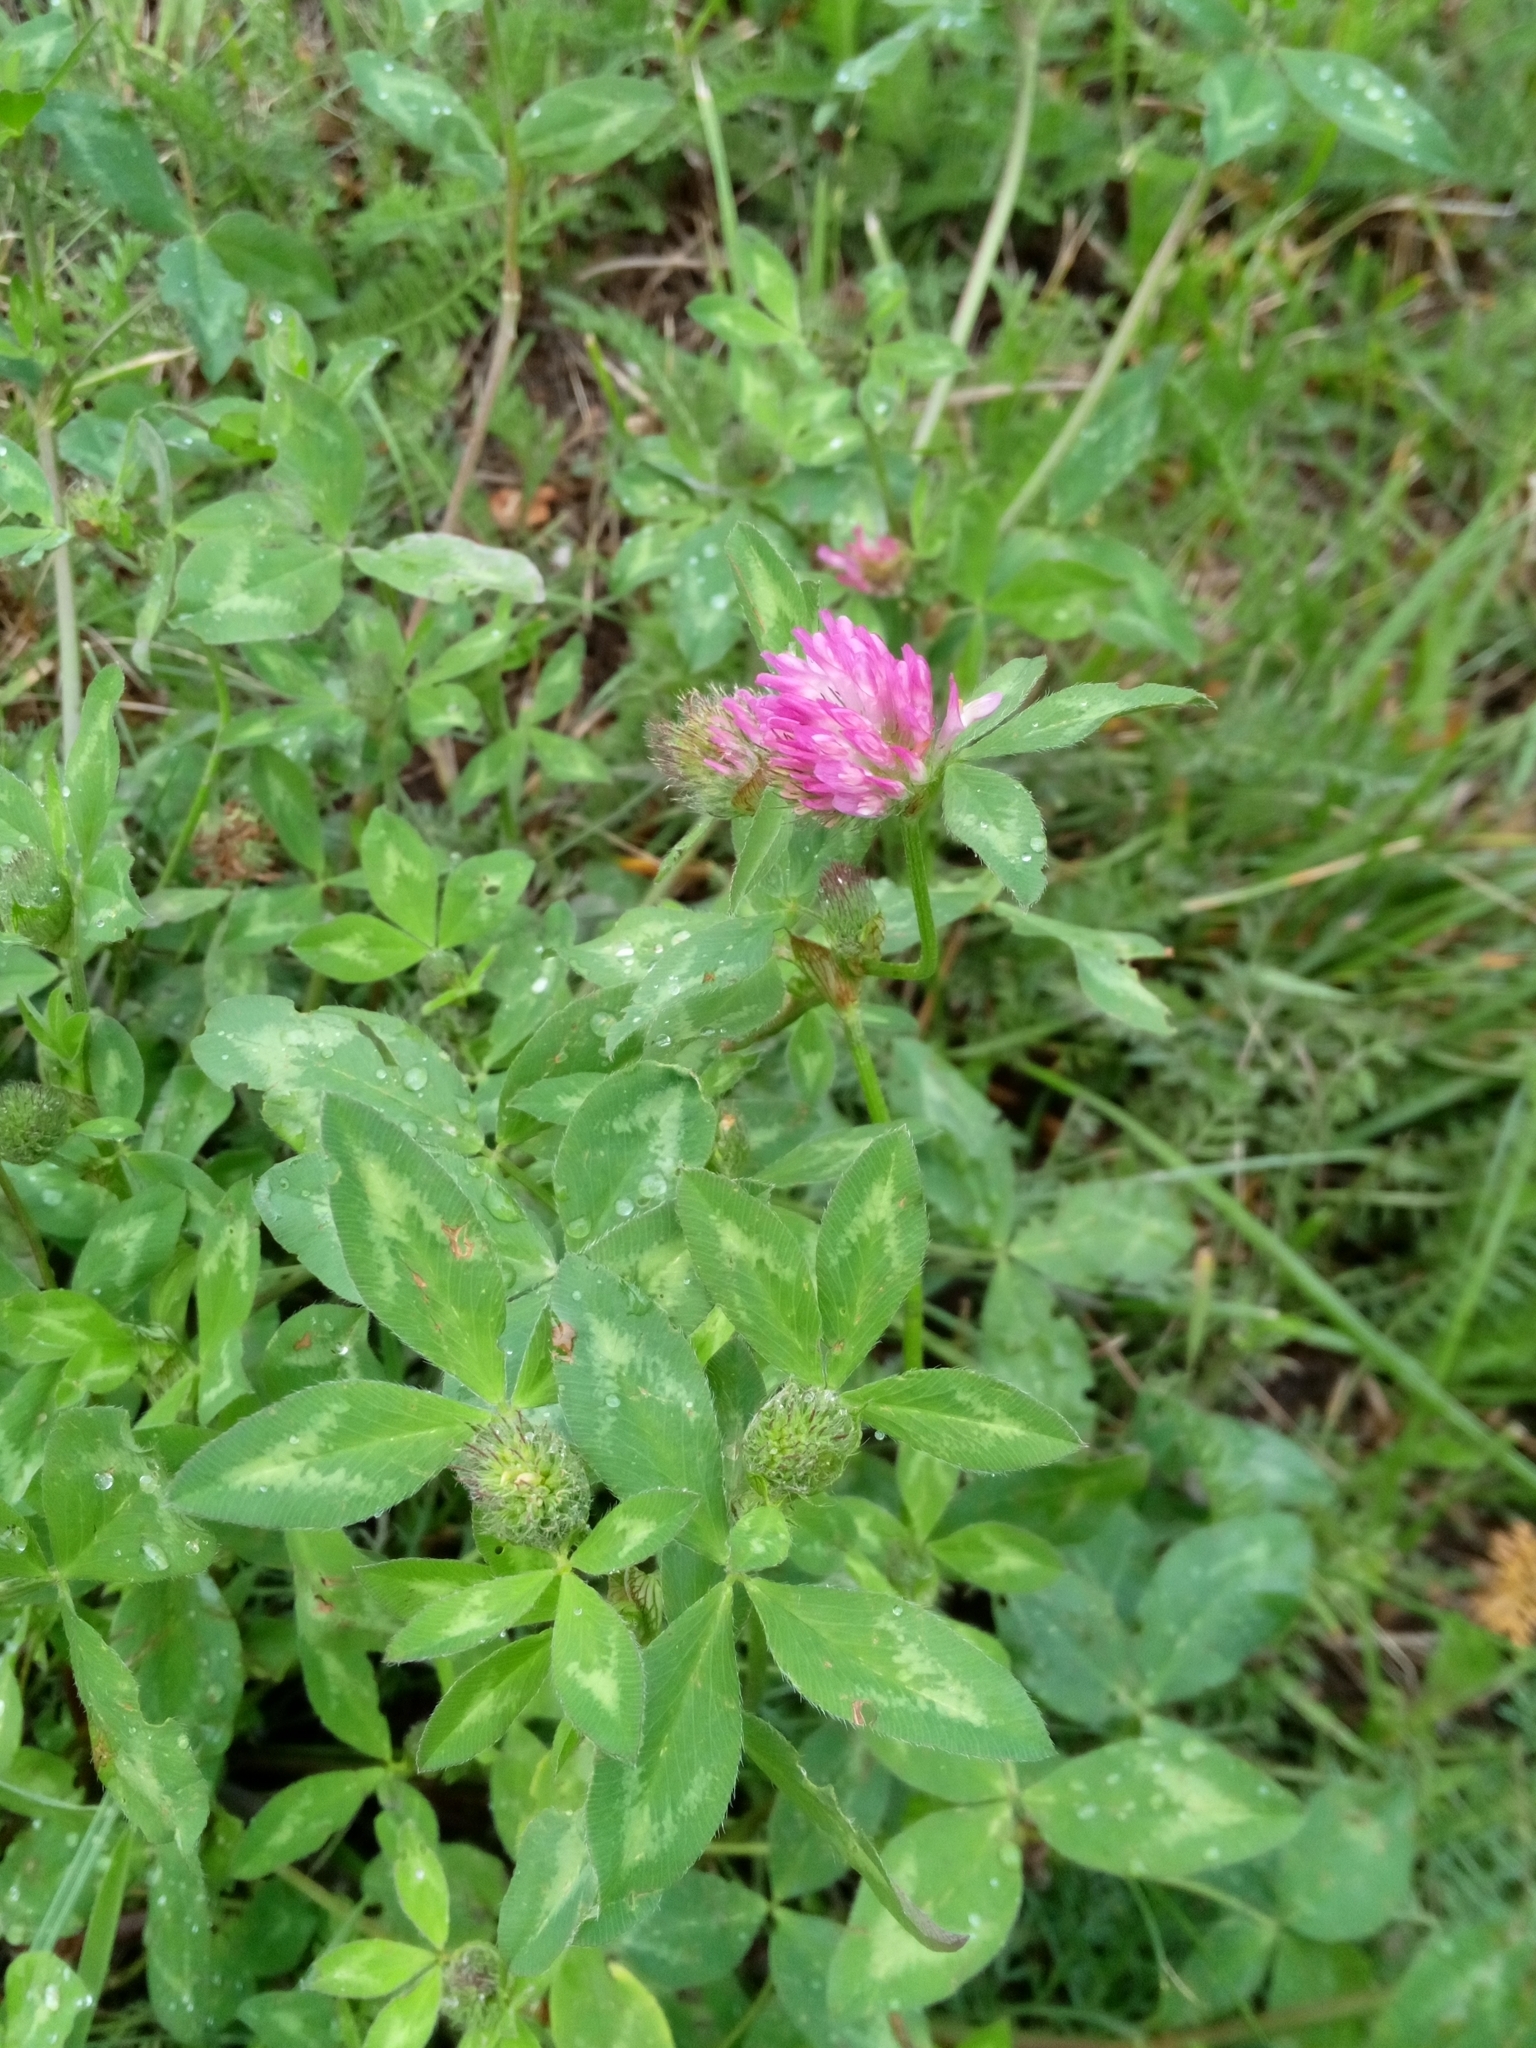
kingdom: Plantae
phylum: Tracheophyta
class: Magnoliopsida
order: Fabales
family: Fabaceae
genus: Trifolium
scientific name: Trifolium pratense
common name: Red clover
